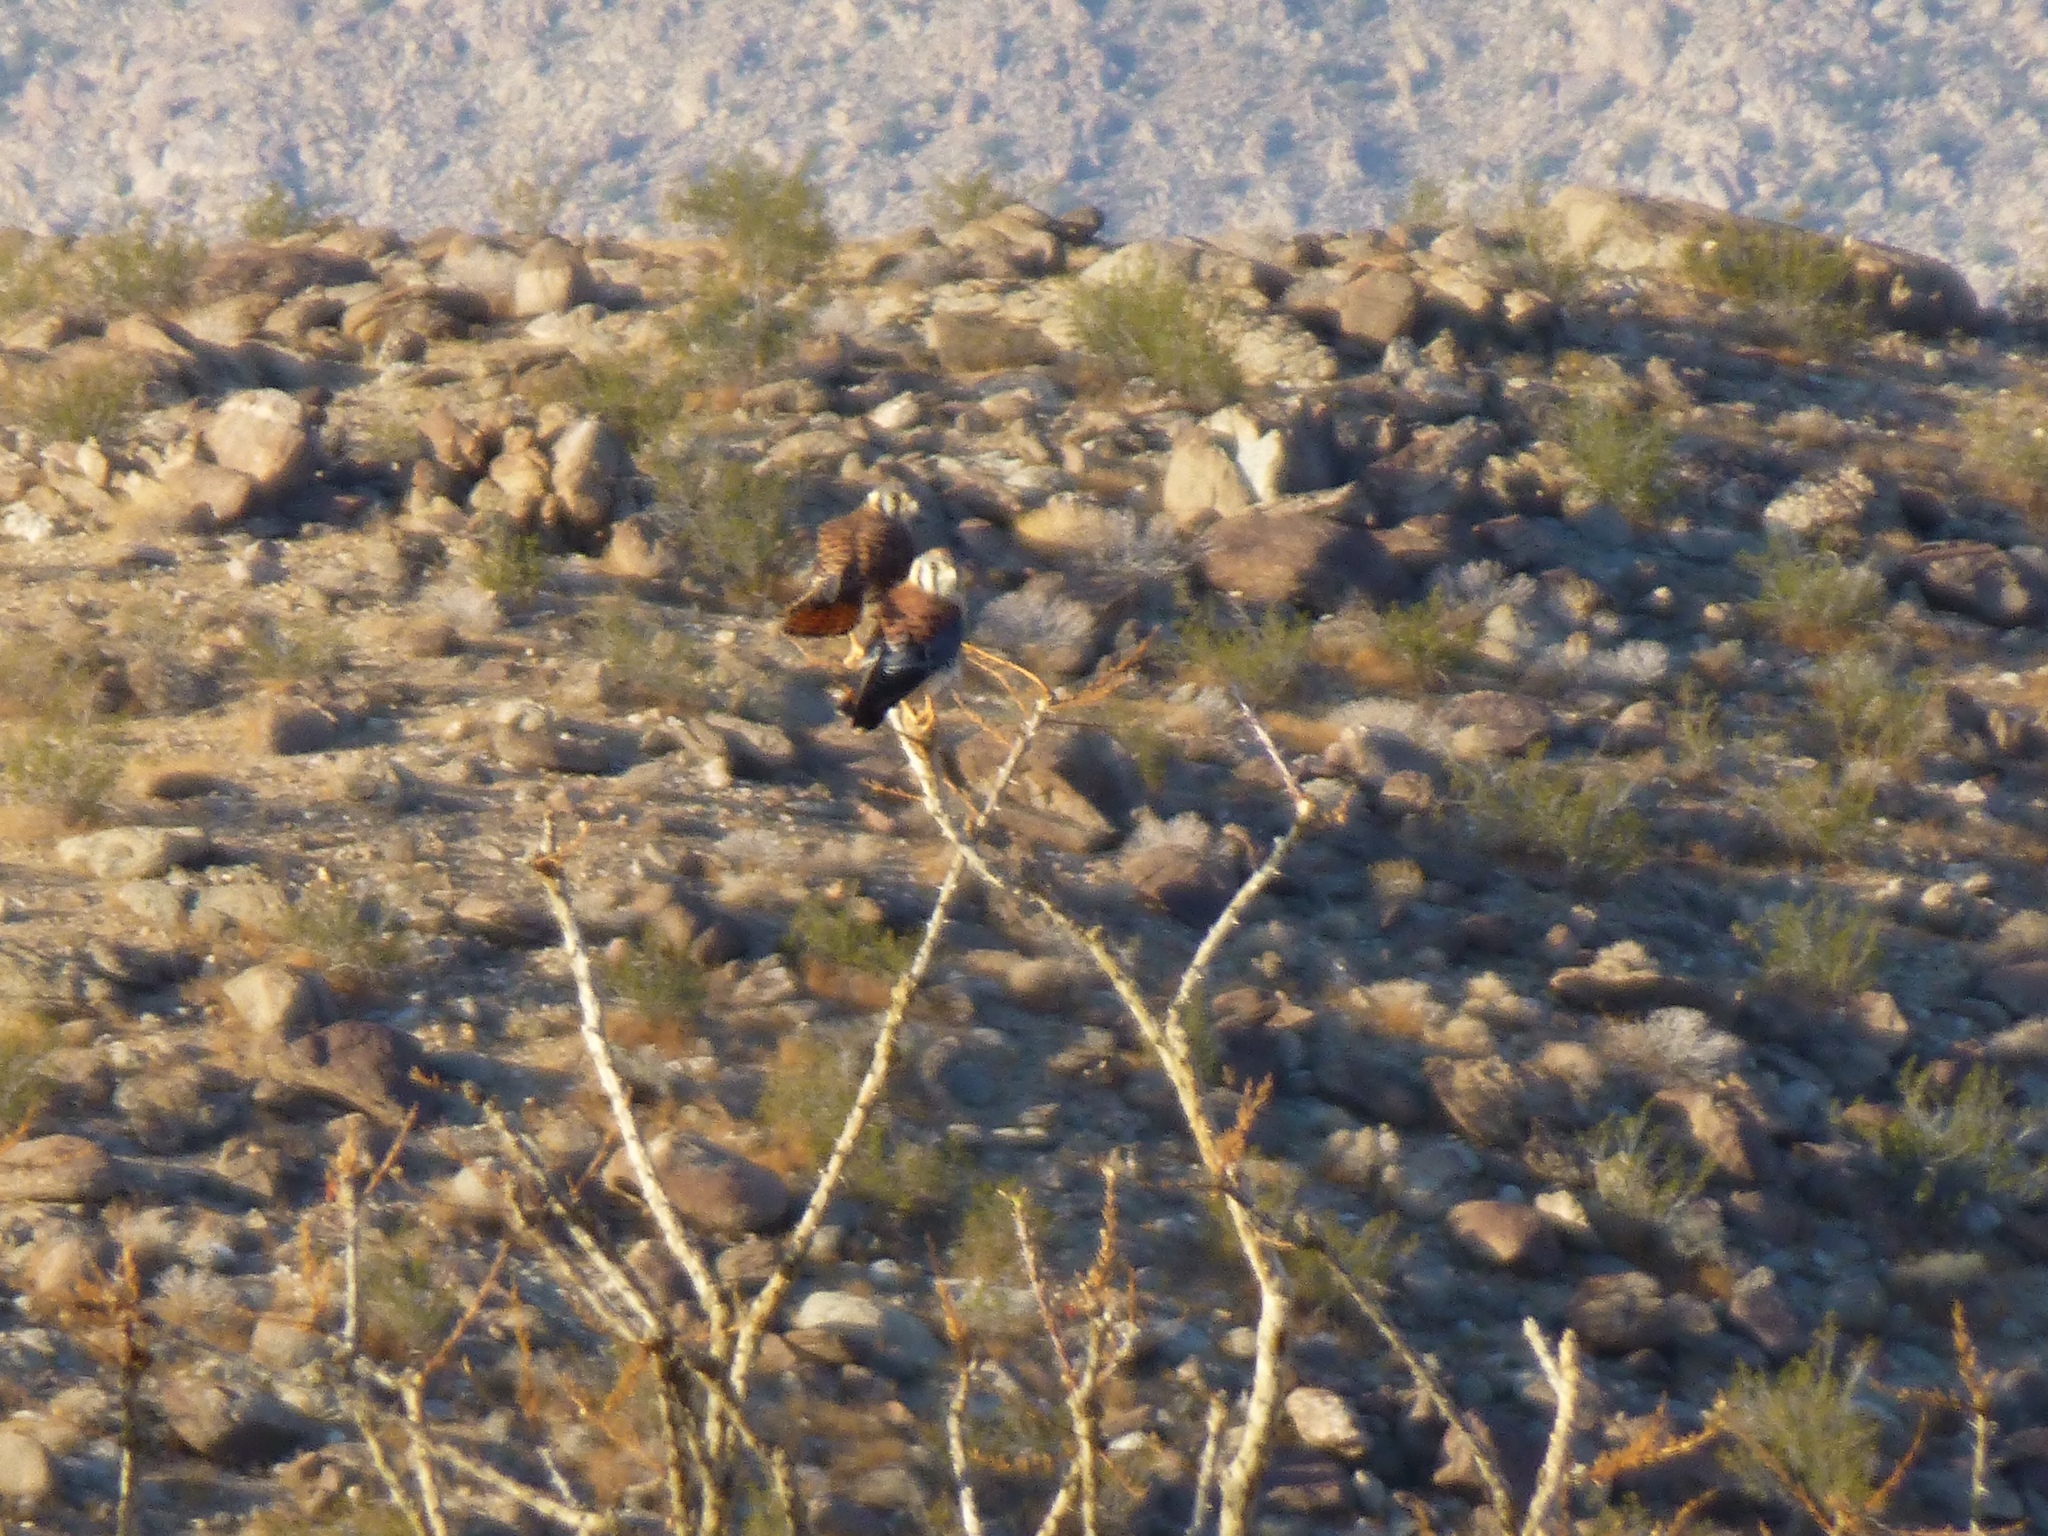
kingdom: Animalia
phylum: Chordata
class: Aves
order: Falconiformes
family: Falconidae
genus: Falco
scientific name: Falco sparverius
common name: American kestrel
